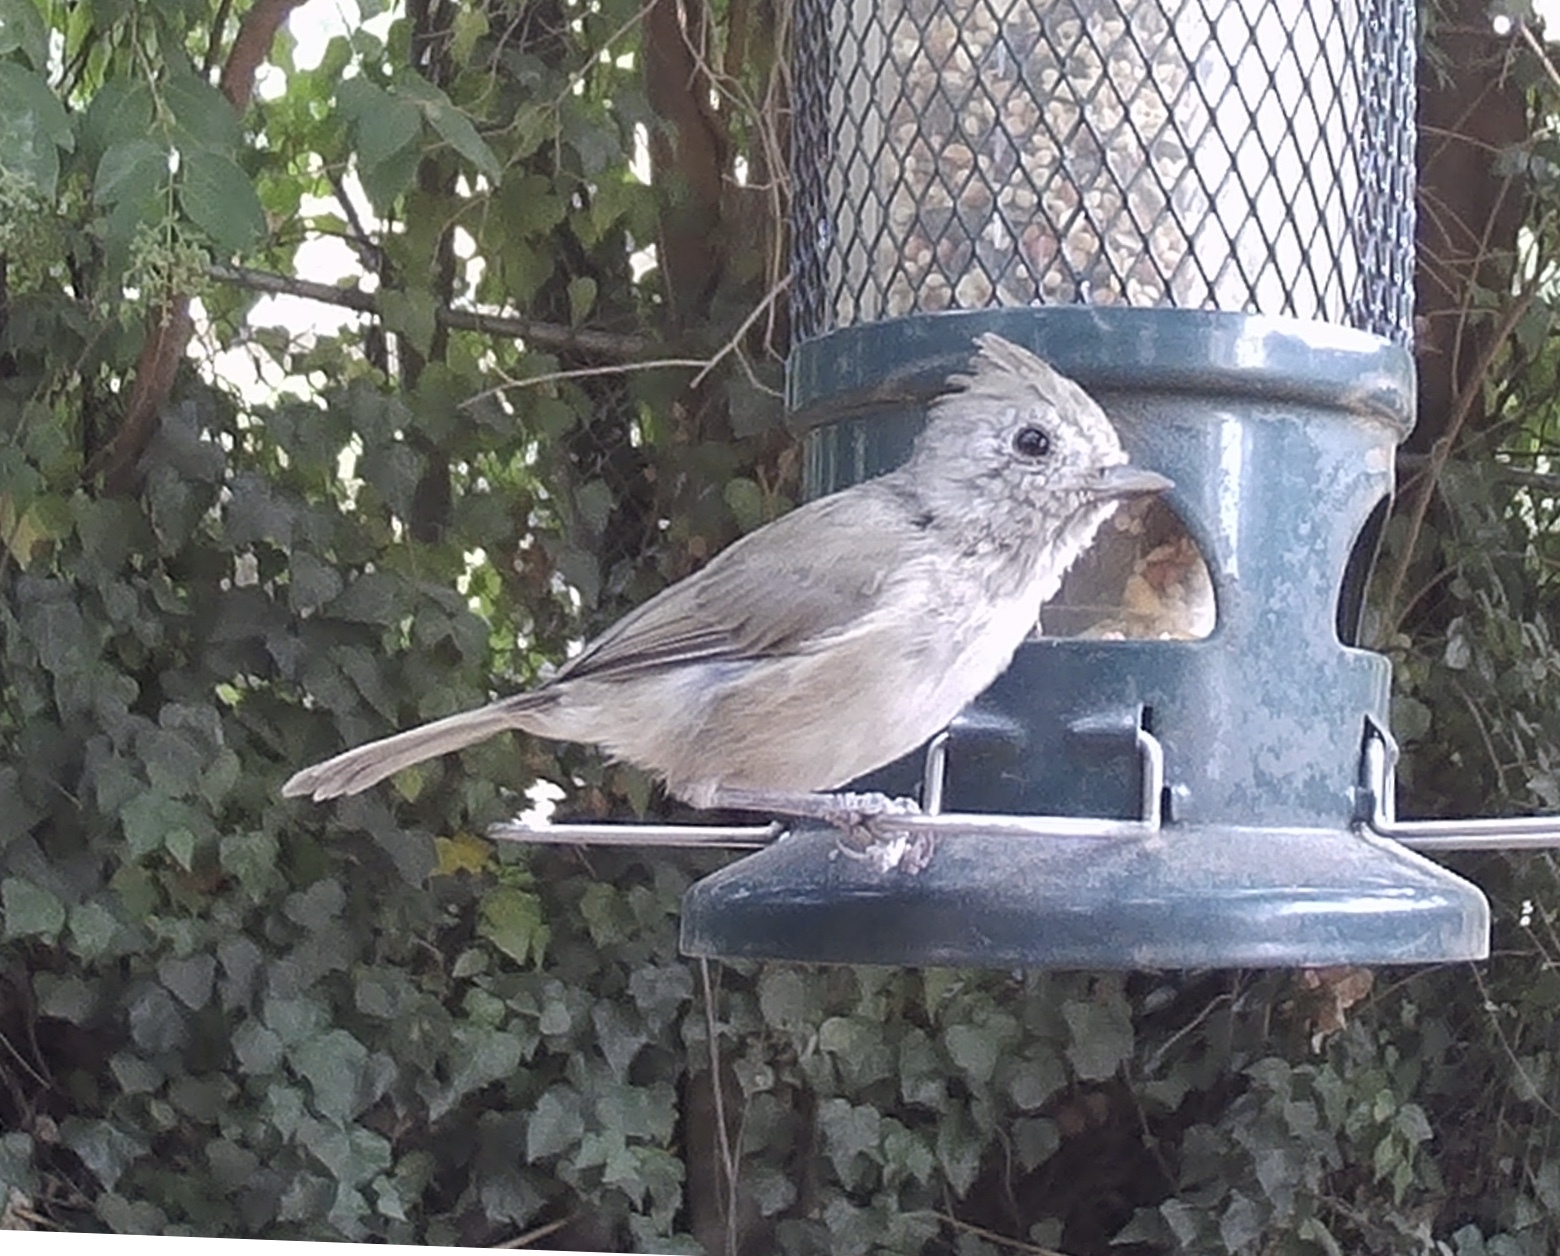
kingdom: Animalia
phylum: Chordata
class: Aves
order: Passeriformes
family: Paridae
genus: Baeolophus
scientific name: Baeolophus inornatus
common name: Oak titmouse
